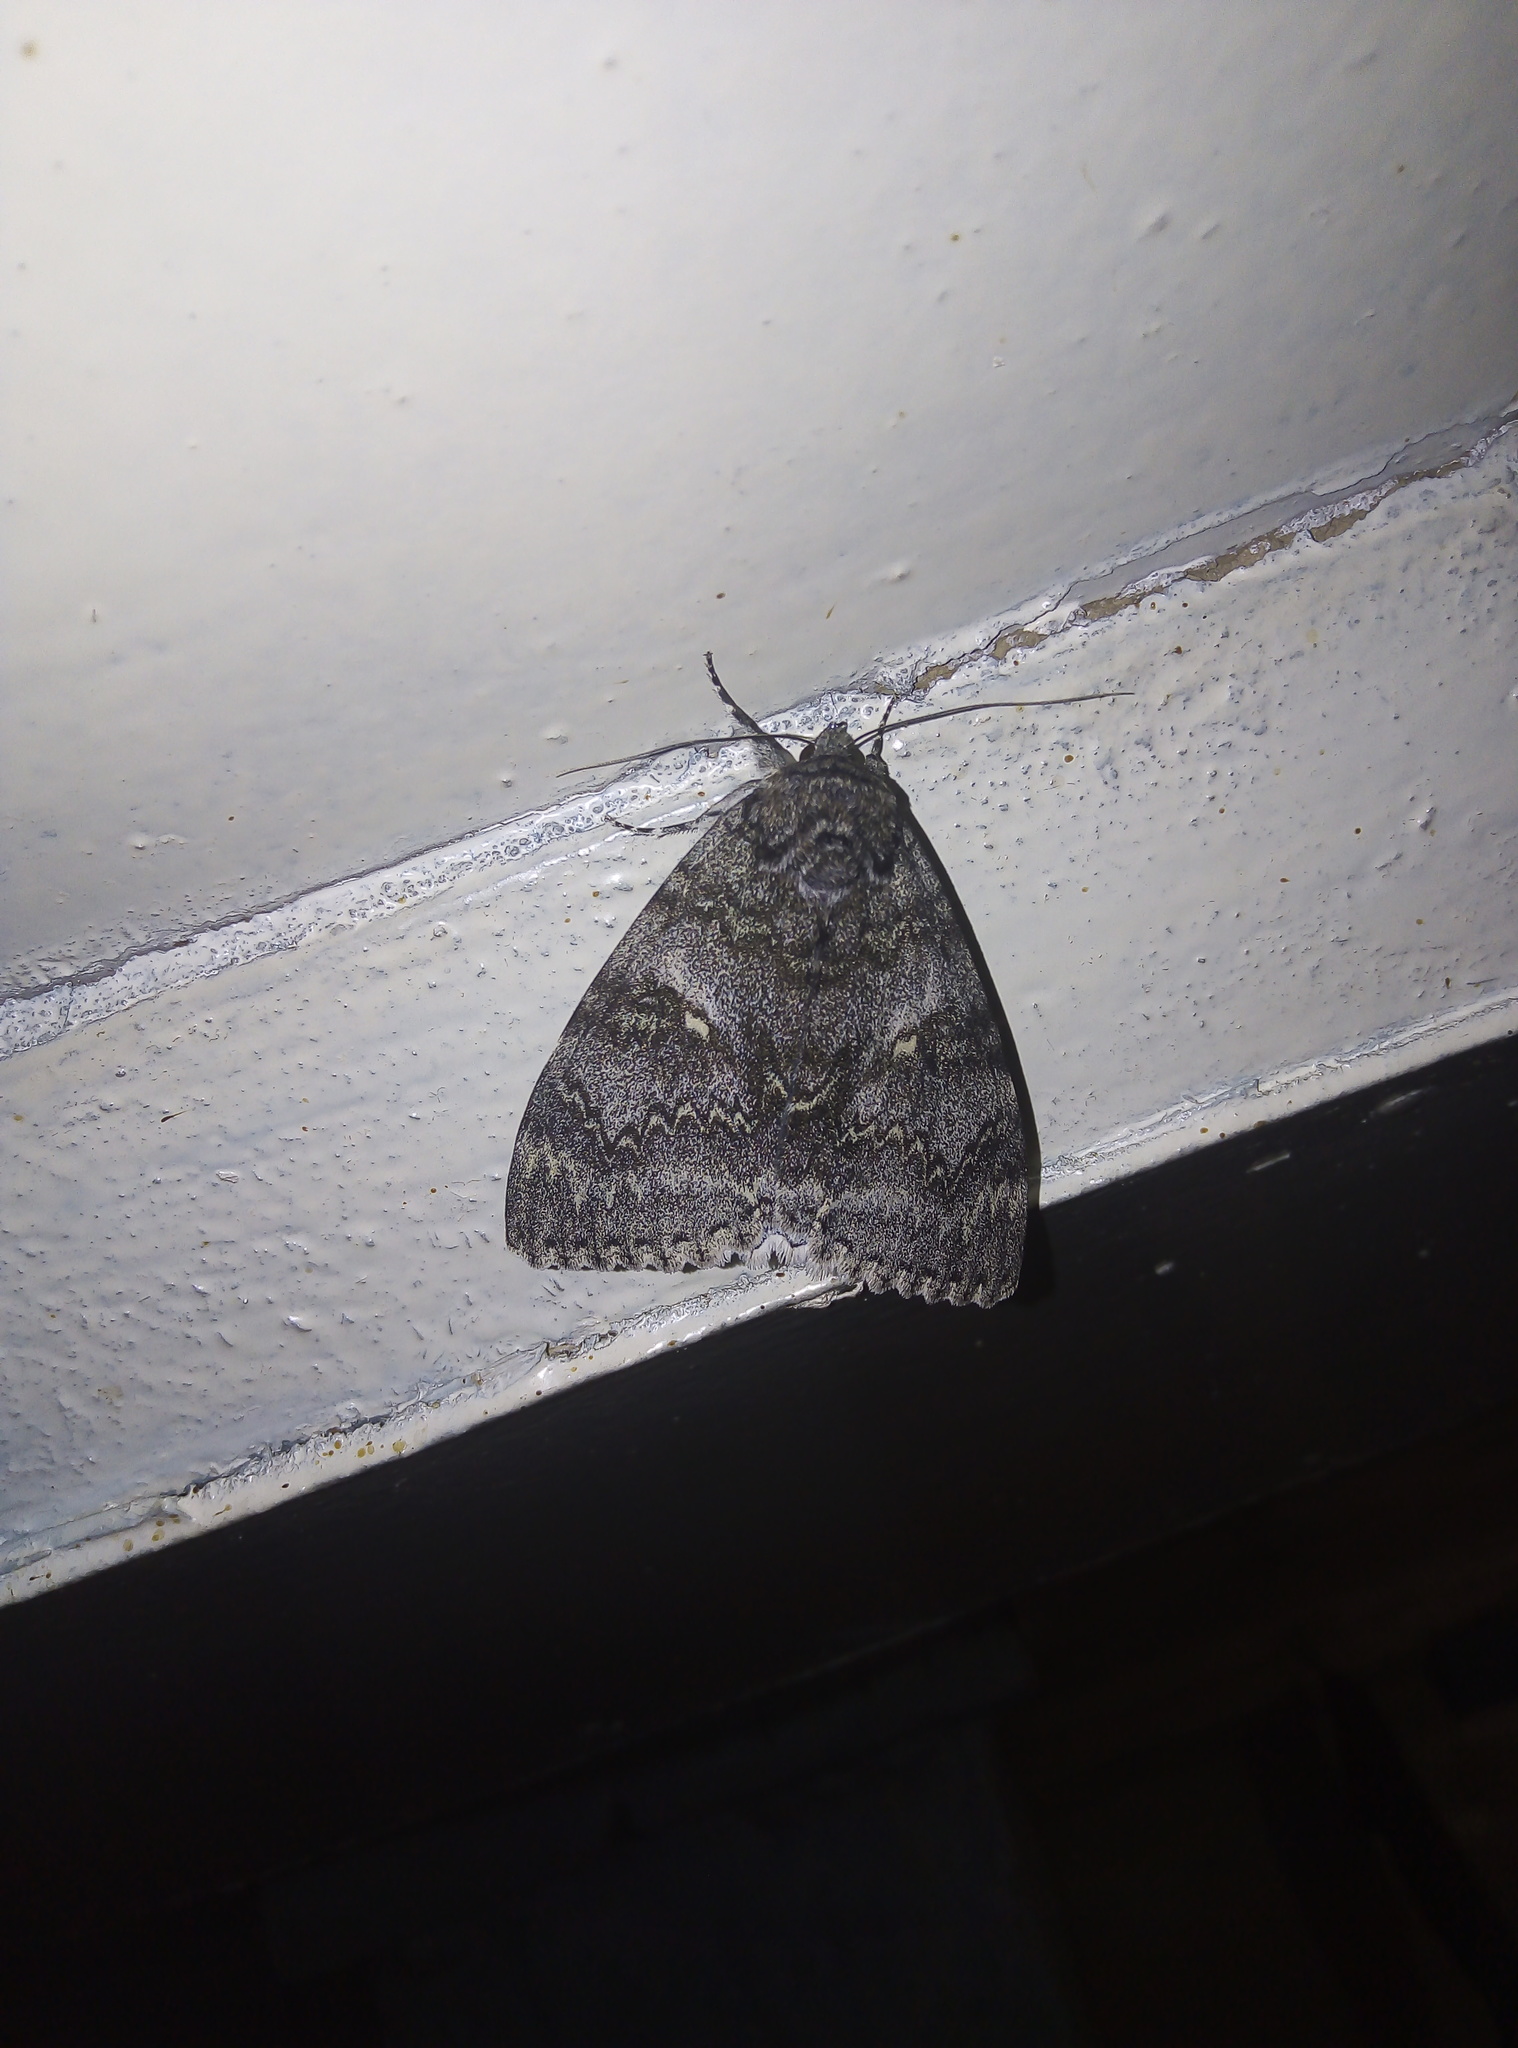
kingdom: Animalia
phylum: Arthropoda
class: Insecta
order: Lepidoptera
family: Erebidae
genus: Catocala
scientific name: Catocala deducta
